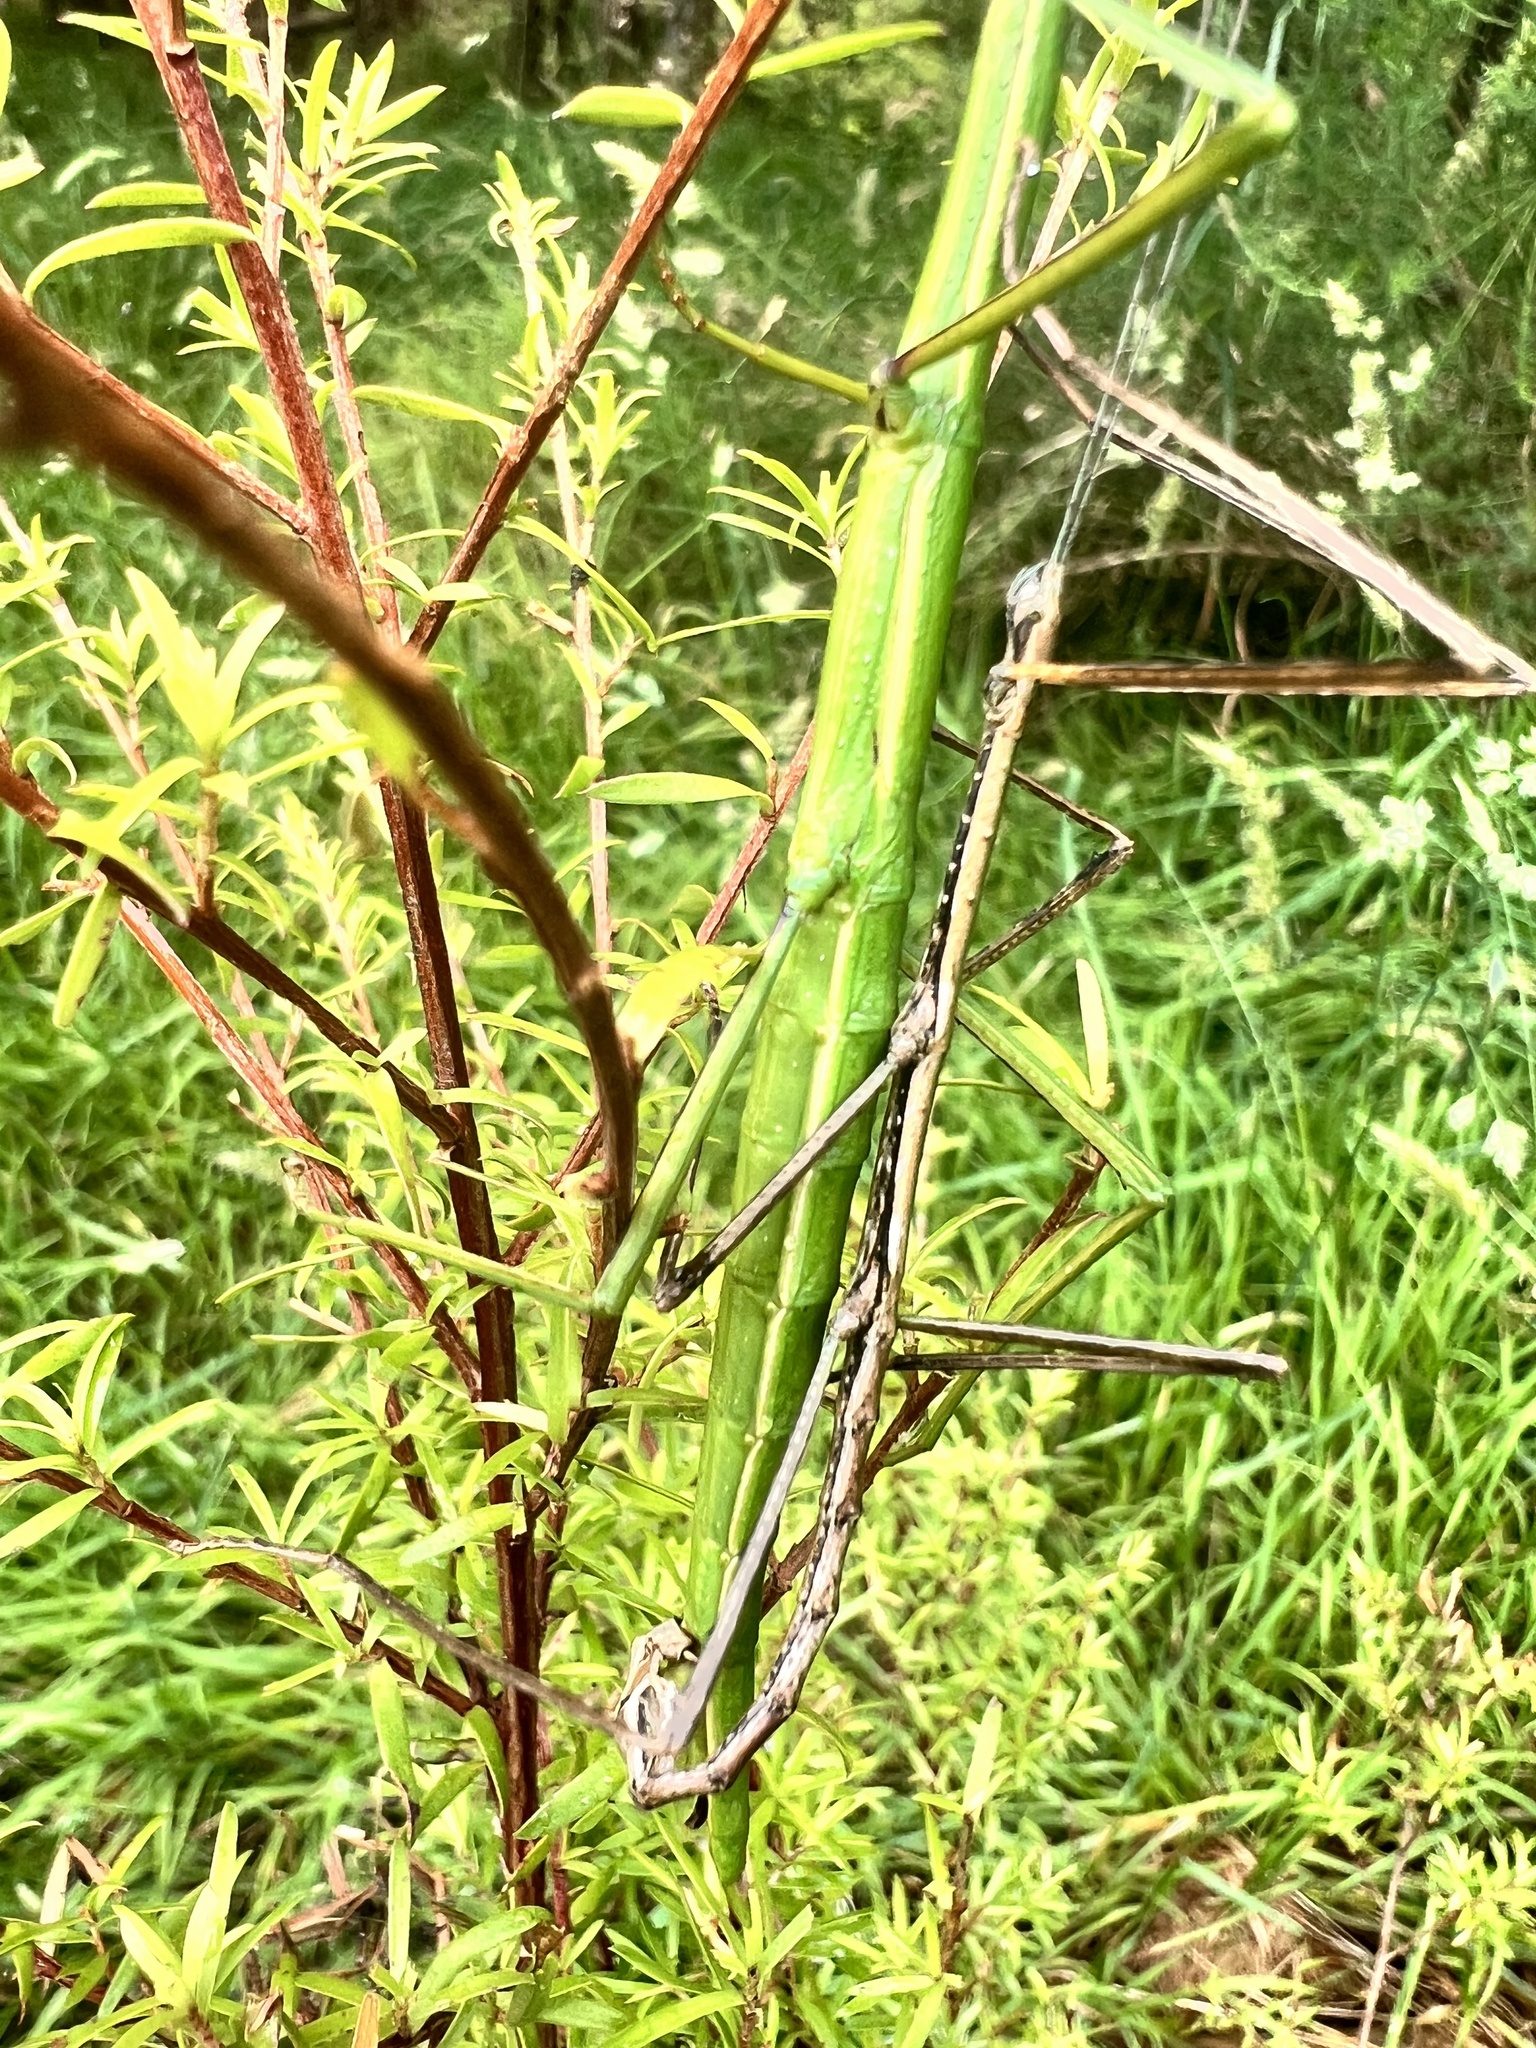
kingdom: Animalia
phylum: Arthropoda
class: Insecta
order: Phasmida
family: Phasmatidae
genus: Clitarchus
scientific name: Clitarchus hookeri
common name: Smooth stick insect
